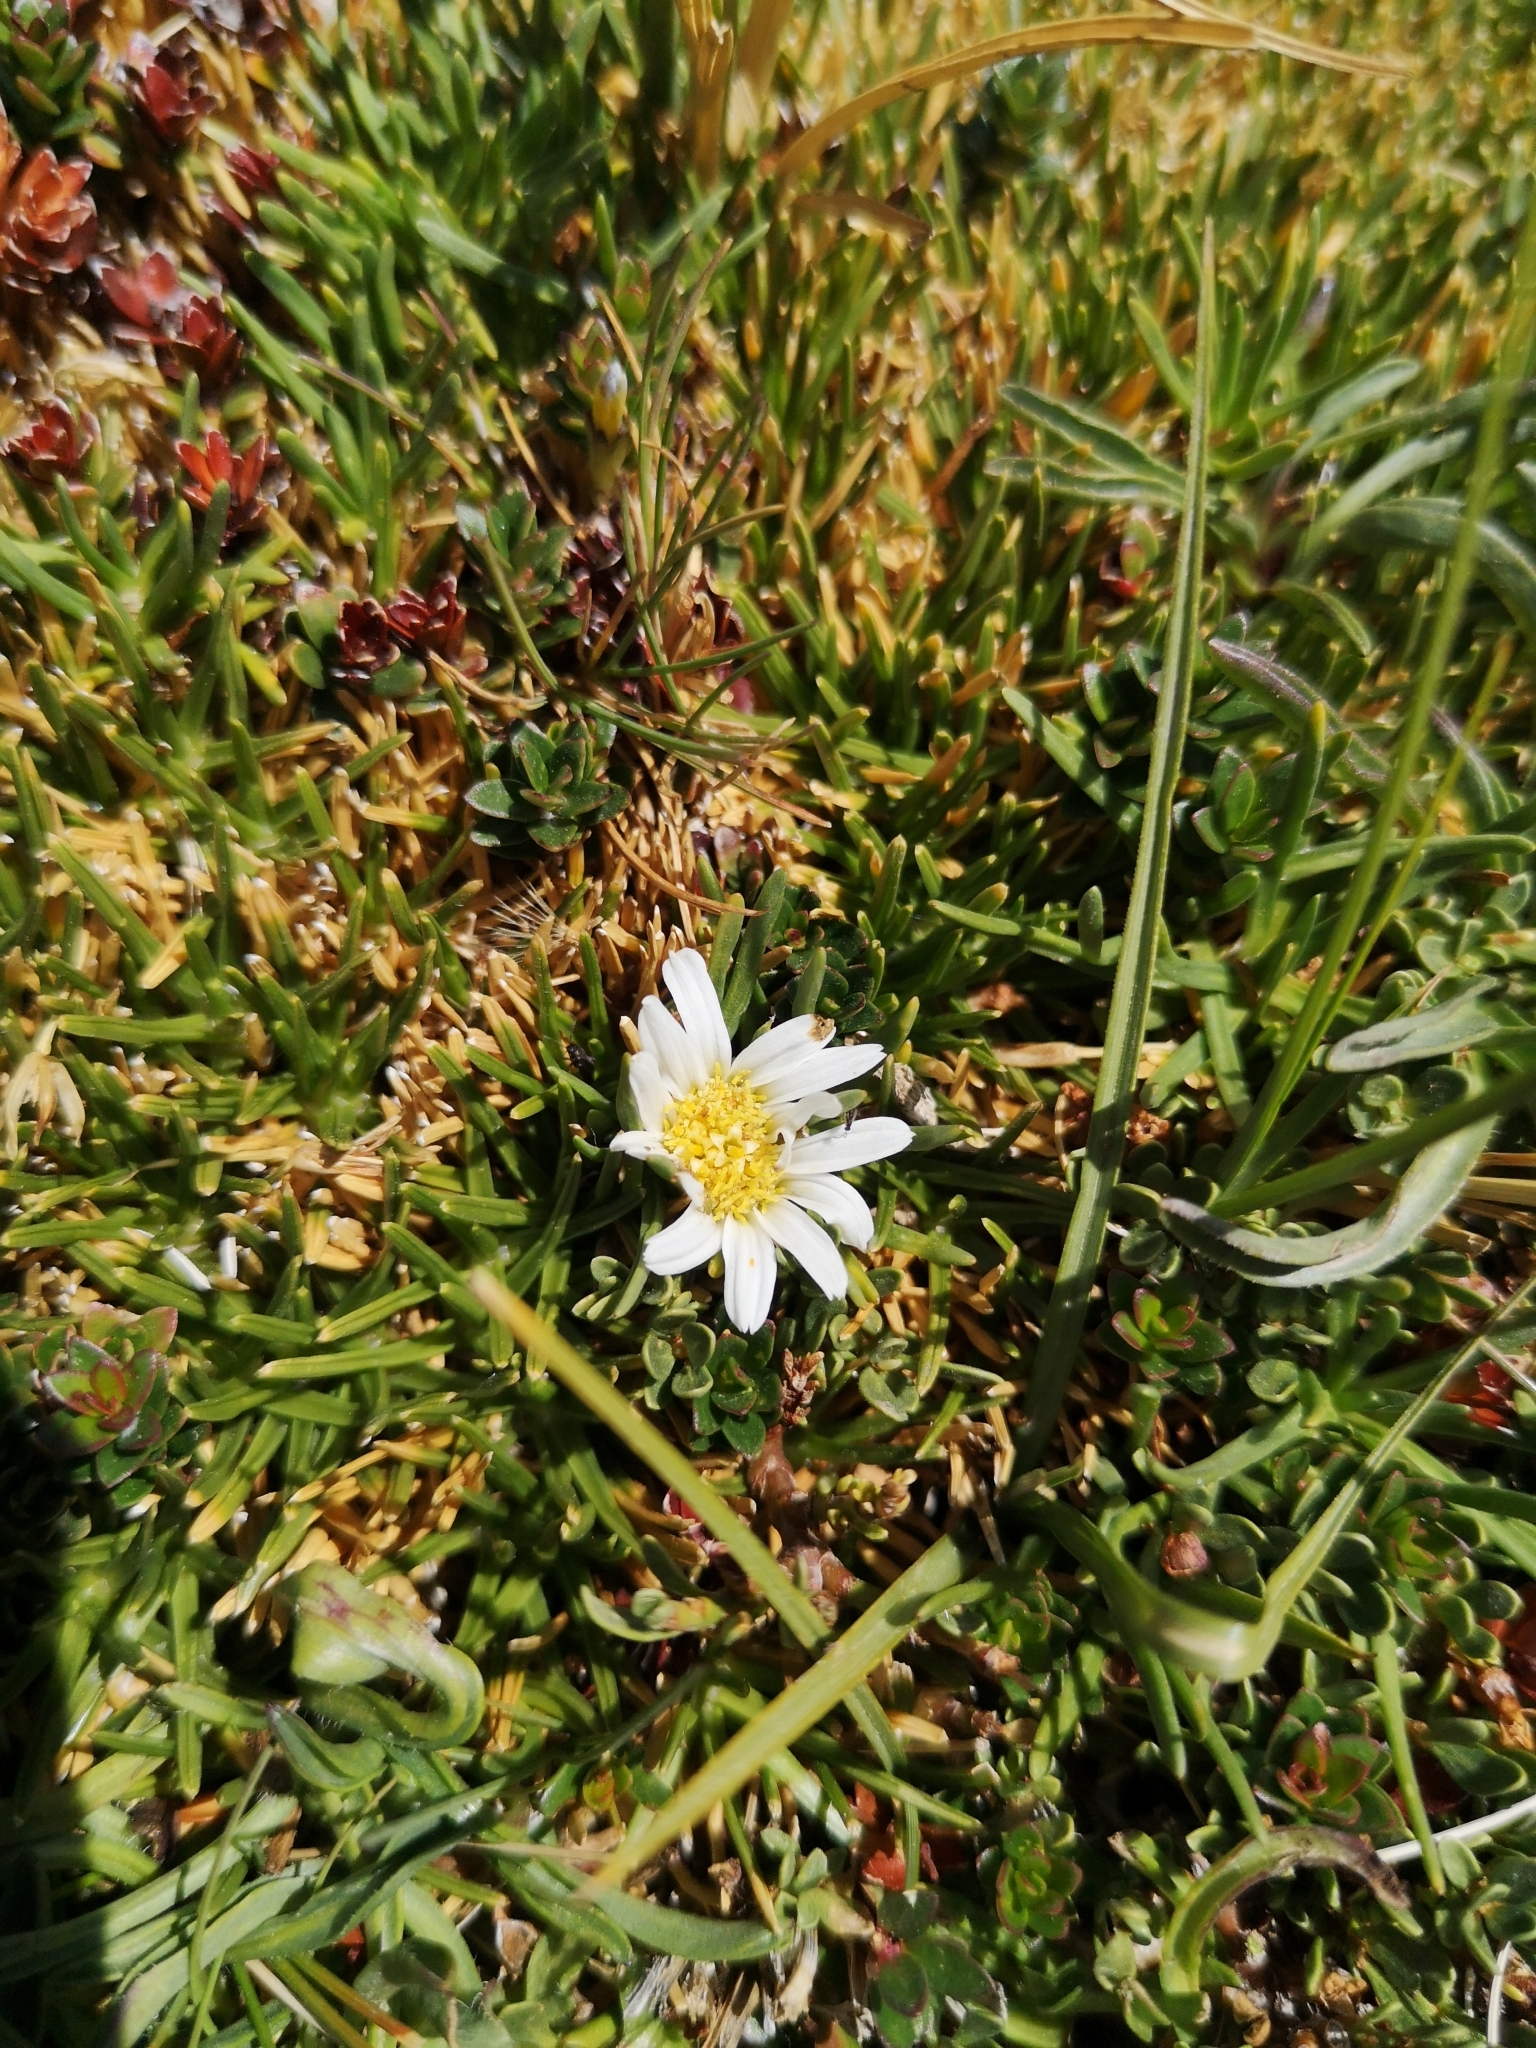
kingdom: Plantae
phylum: Tracheophyta
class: Magnoliopsida
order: Asterales
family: Asteraceae
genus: Rockhausenia
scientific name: Rockhausenia pygmaea
